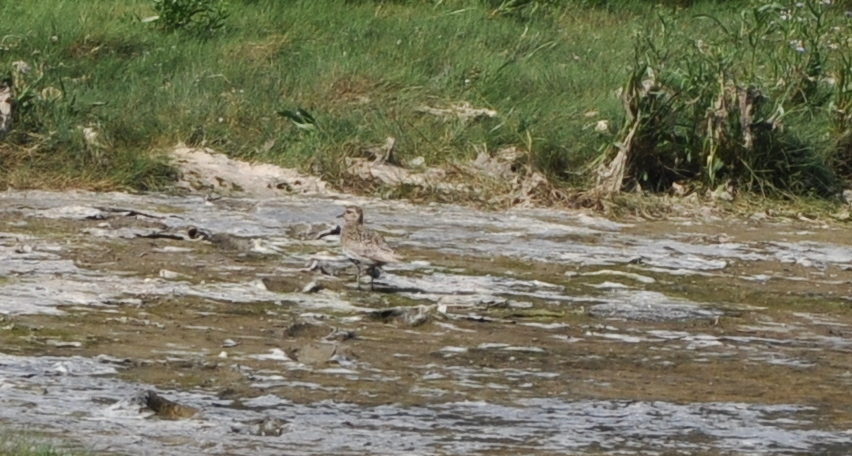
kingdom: Animalia
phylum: Chordata
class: Aves
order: Charadriiformes
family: Charadriidae
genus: Pluvialis
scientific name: Pluvialis apricaria
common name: European golden plover
